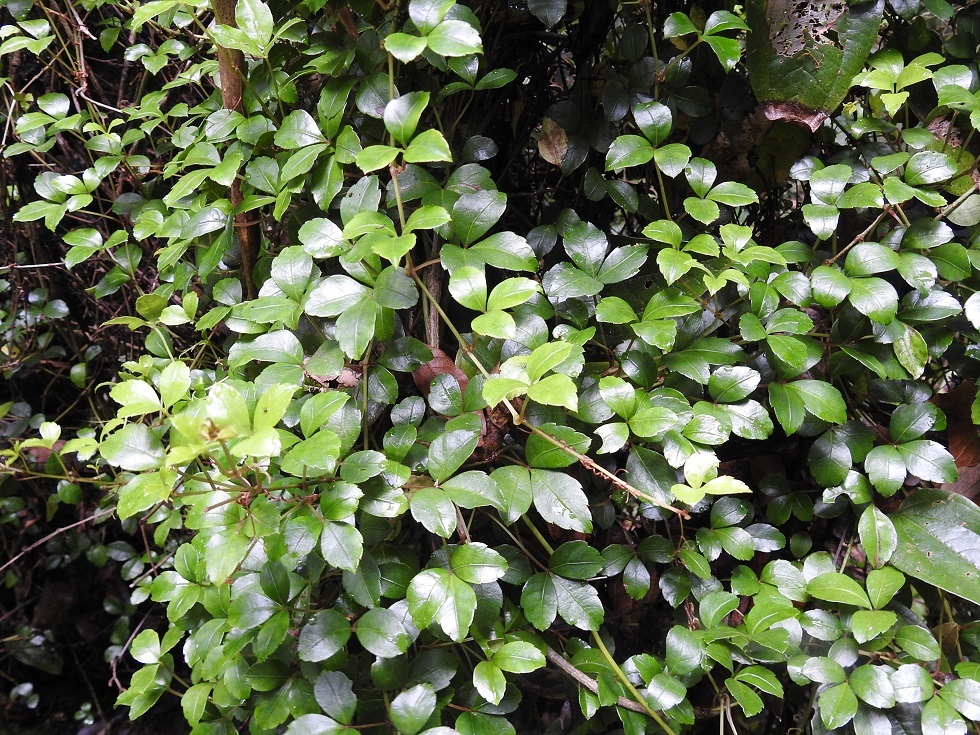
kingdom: Plantae
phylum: Tracheophyta
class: Magnoliopsida
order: Vitales
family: Vitaceae
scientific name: Vitaceae
